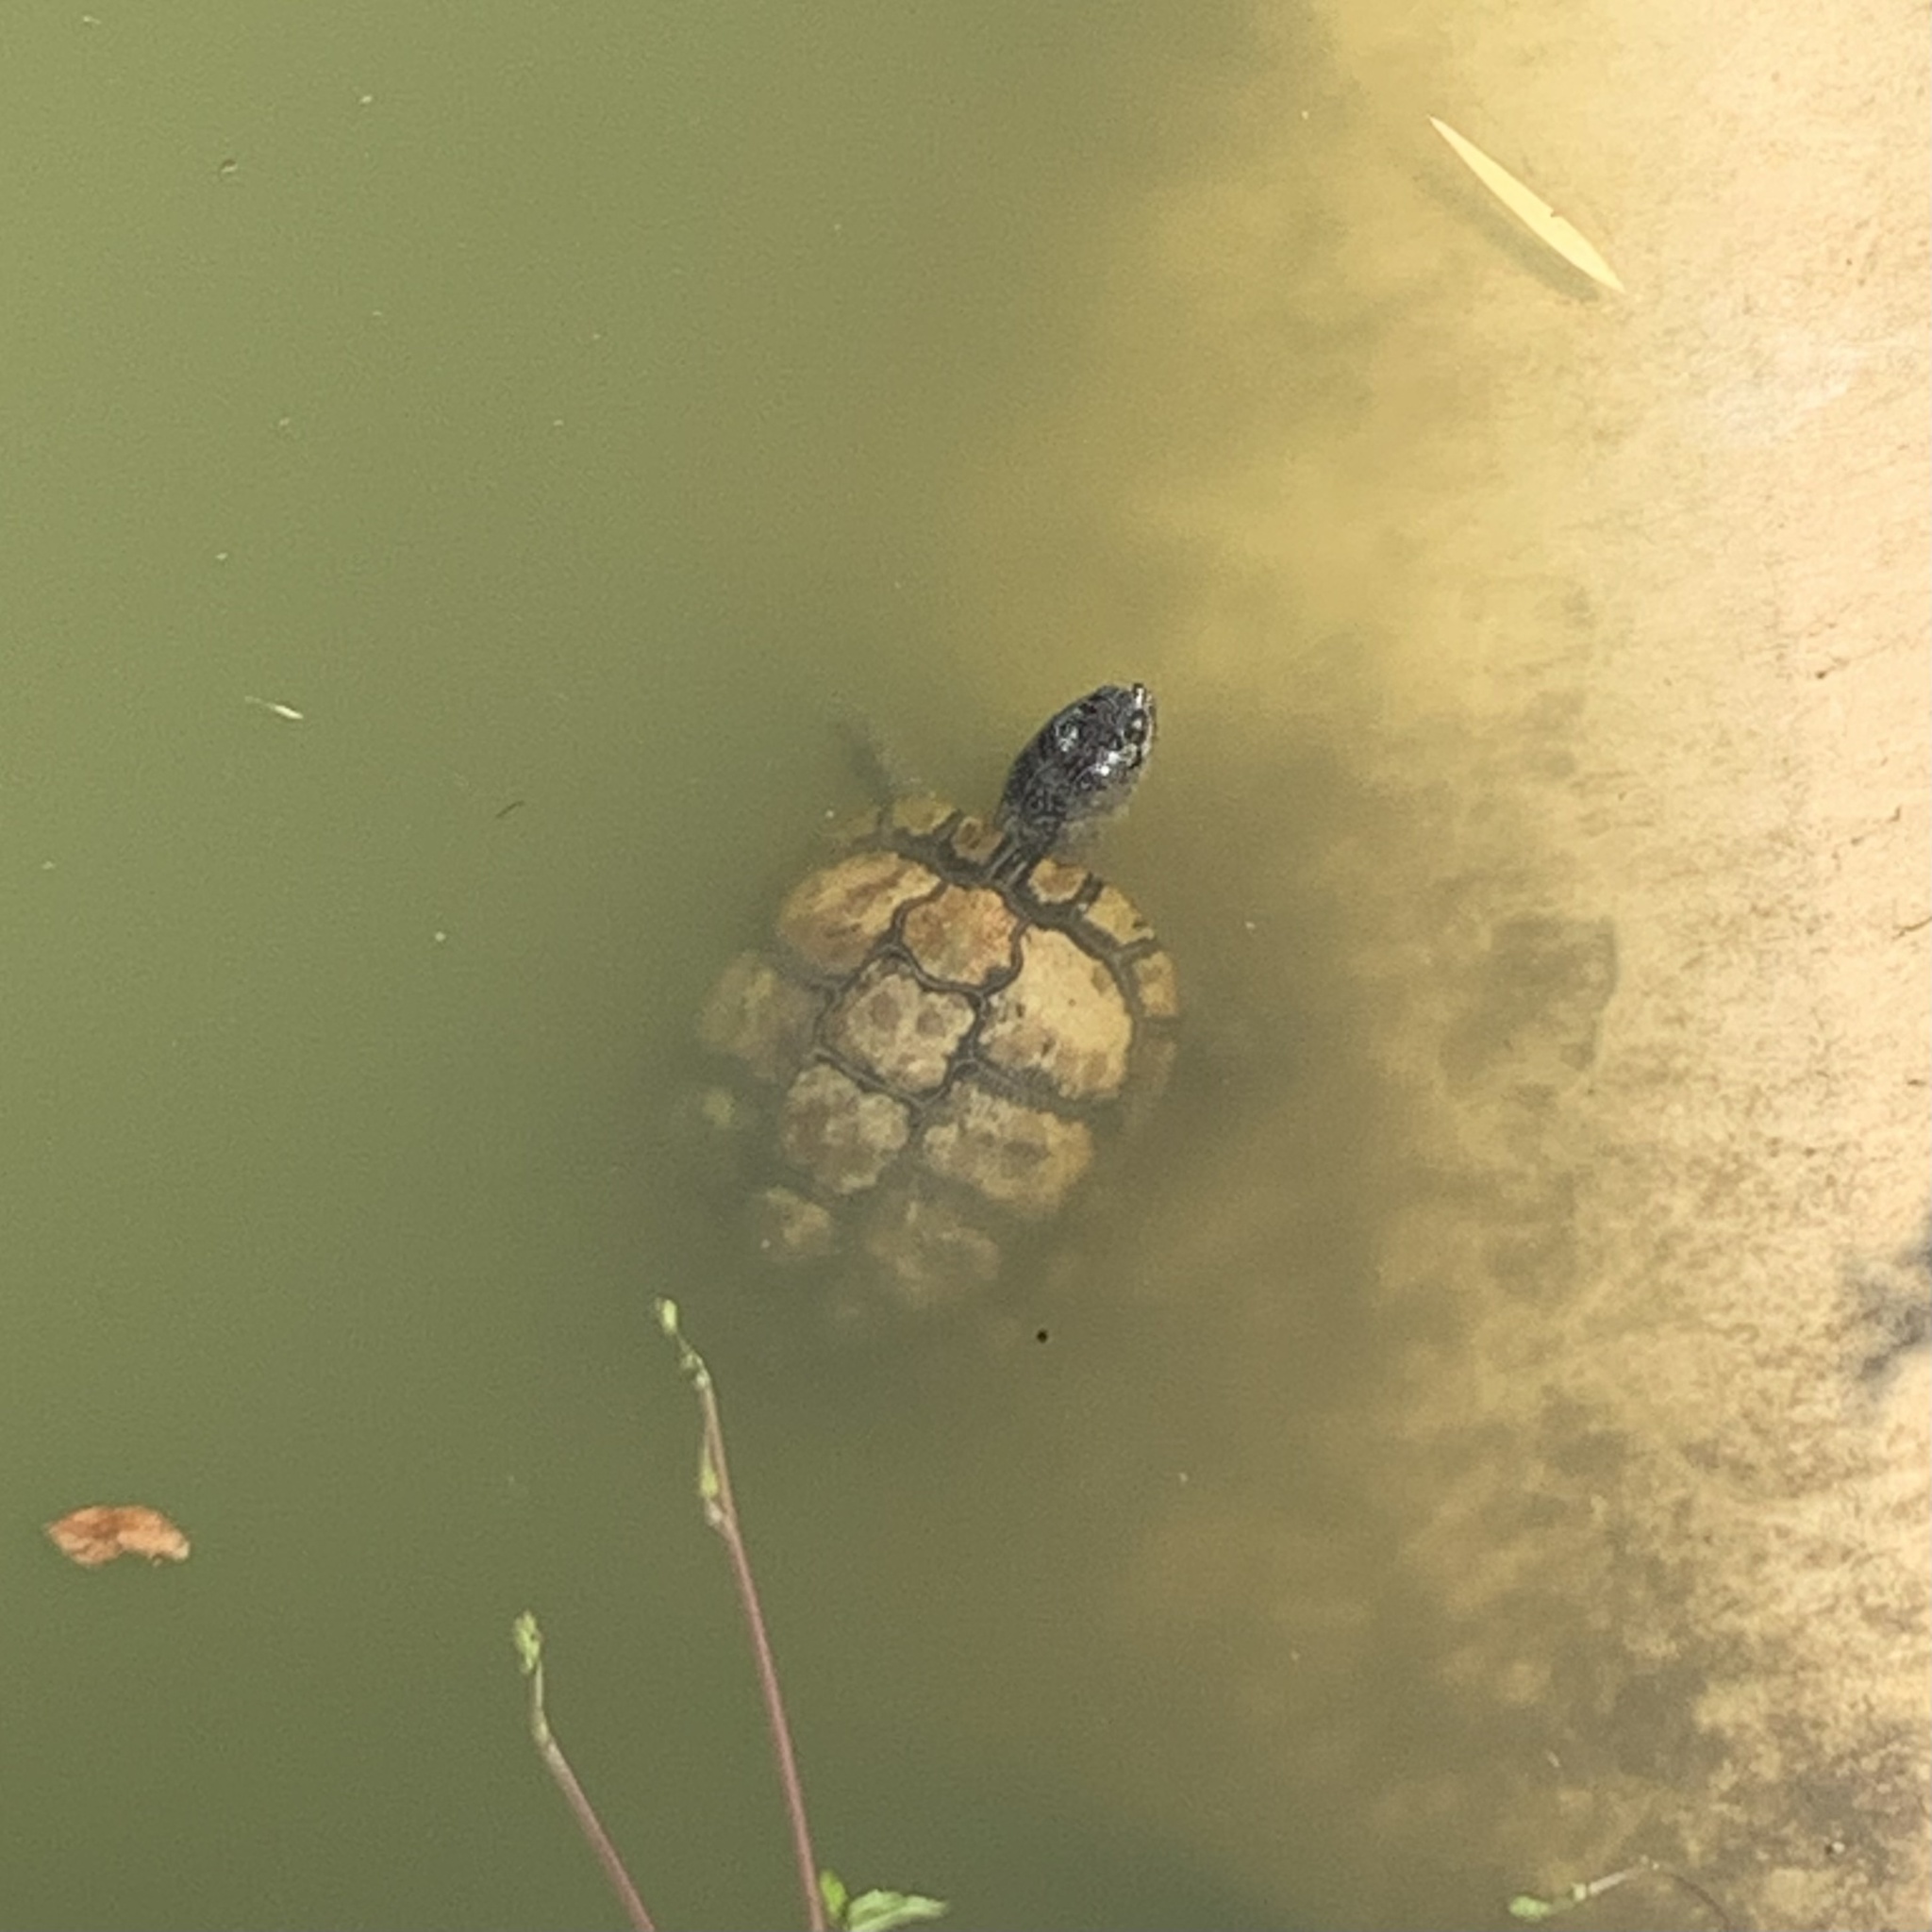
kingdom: Animalia
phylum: Chordata
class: Testudines
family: Emydidae
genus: Trachemys
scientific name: Trachemys scripta
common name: Slider
